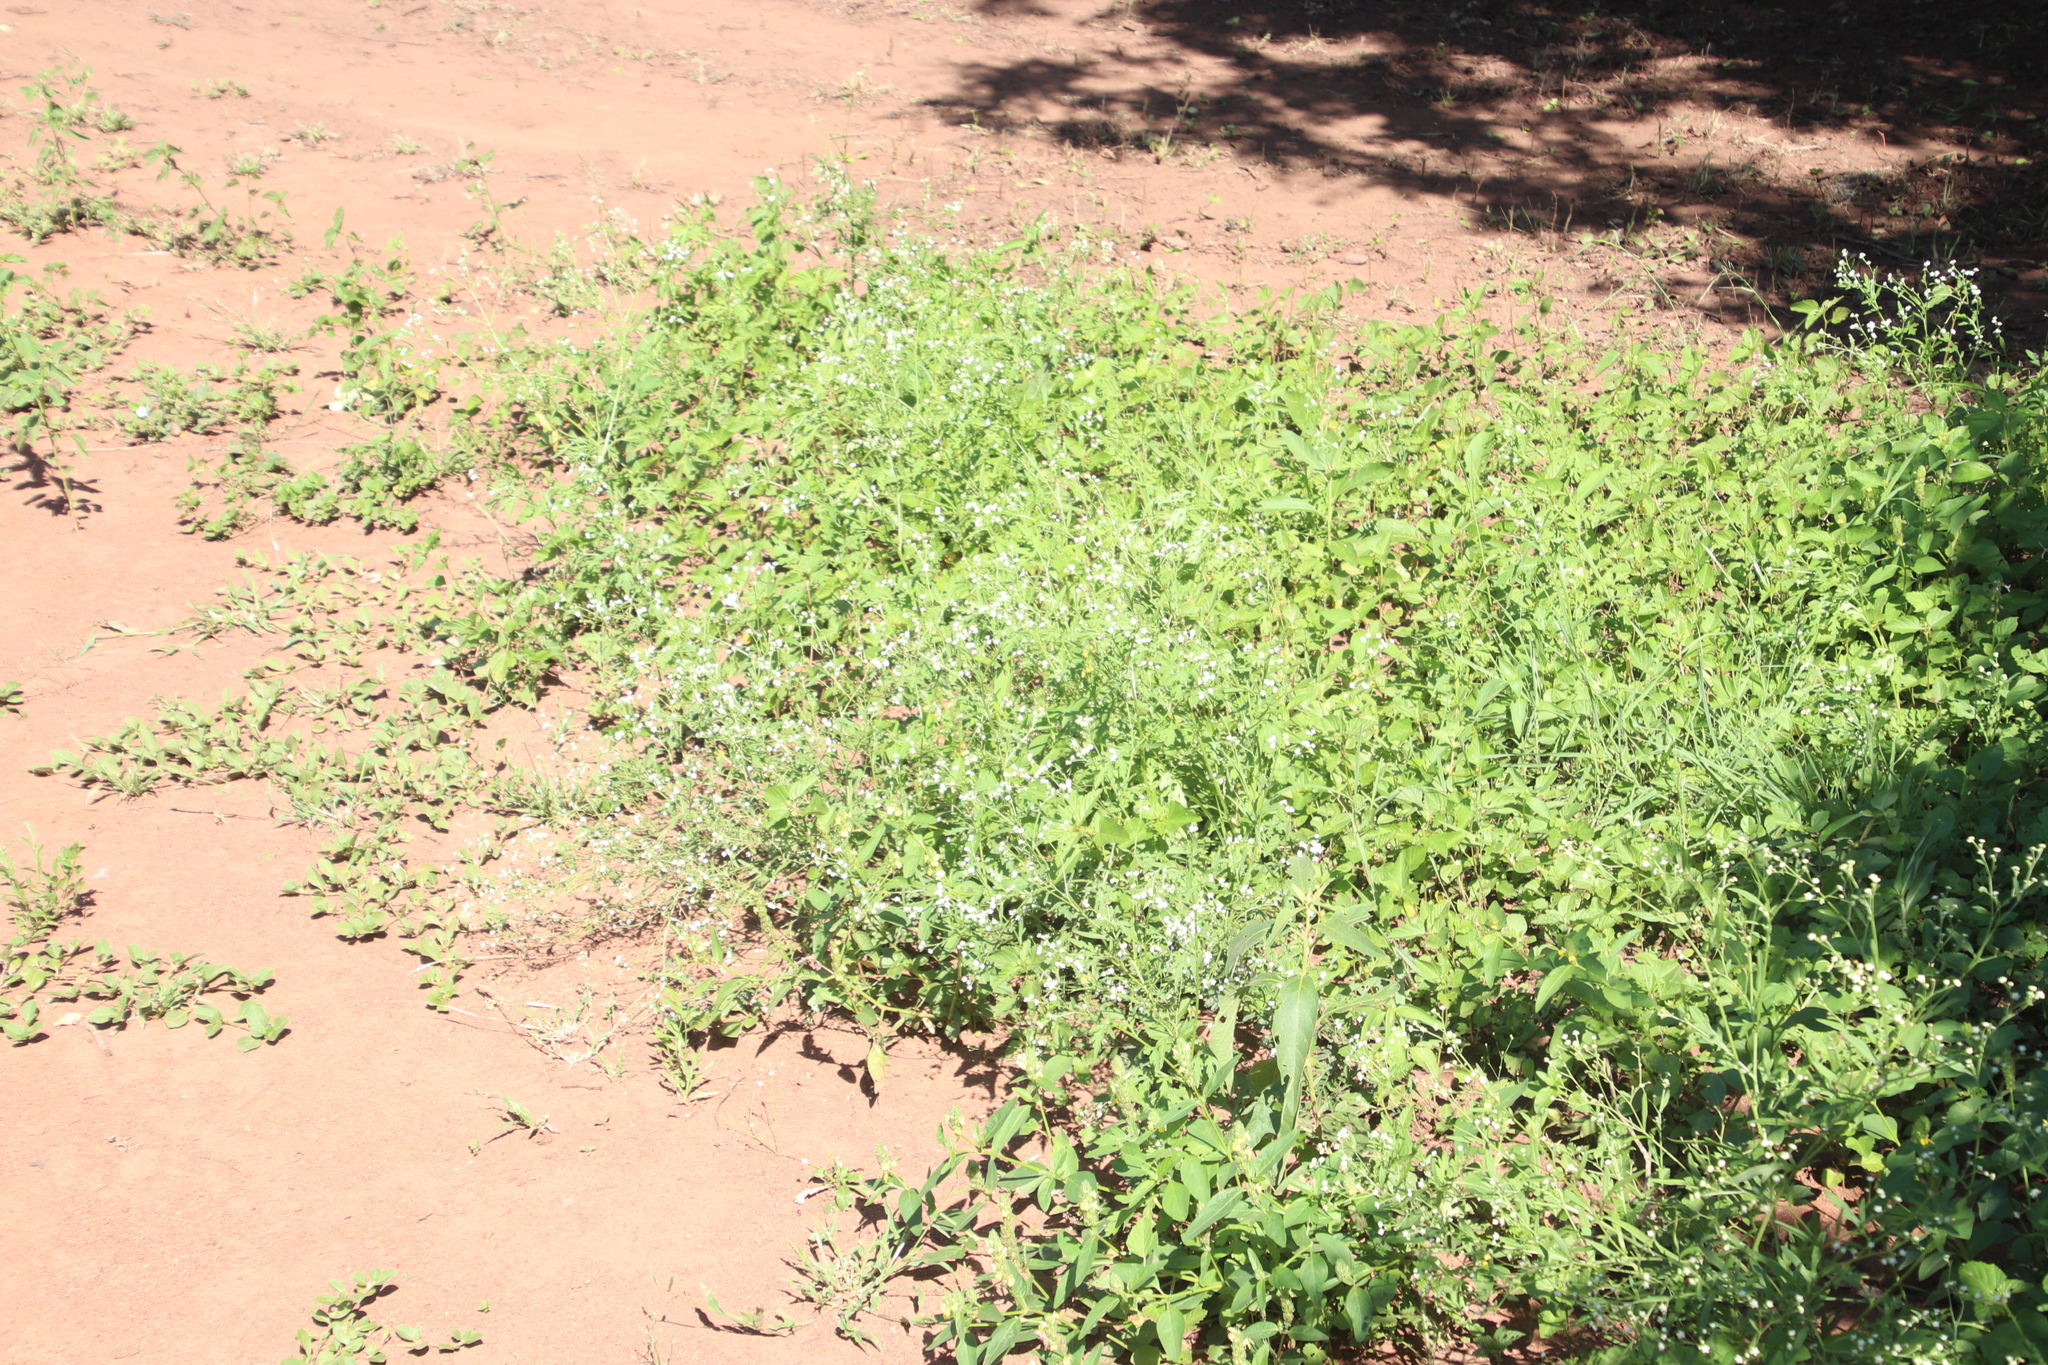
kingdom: Plantae
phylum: Tracheophyta
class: Magnoliopsida
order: Asterales
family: Asteraceae
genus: Parthenium
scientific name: Parthenium hysterophorus
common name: Santa maria feverfew
